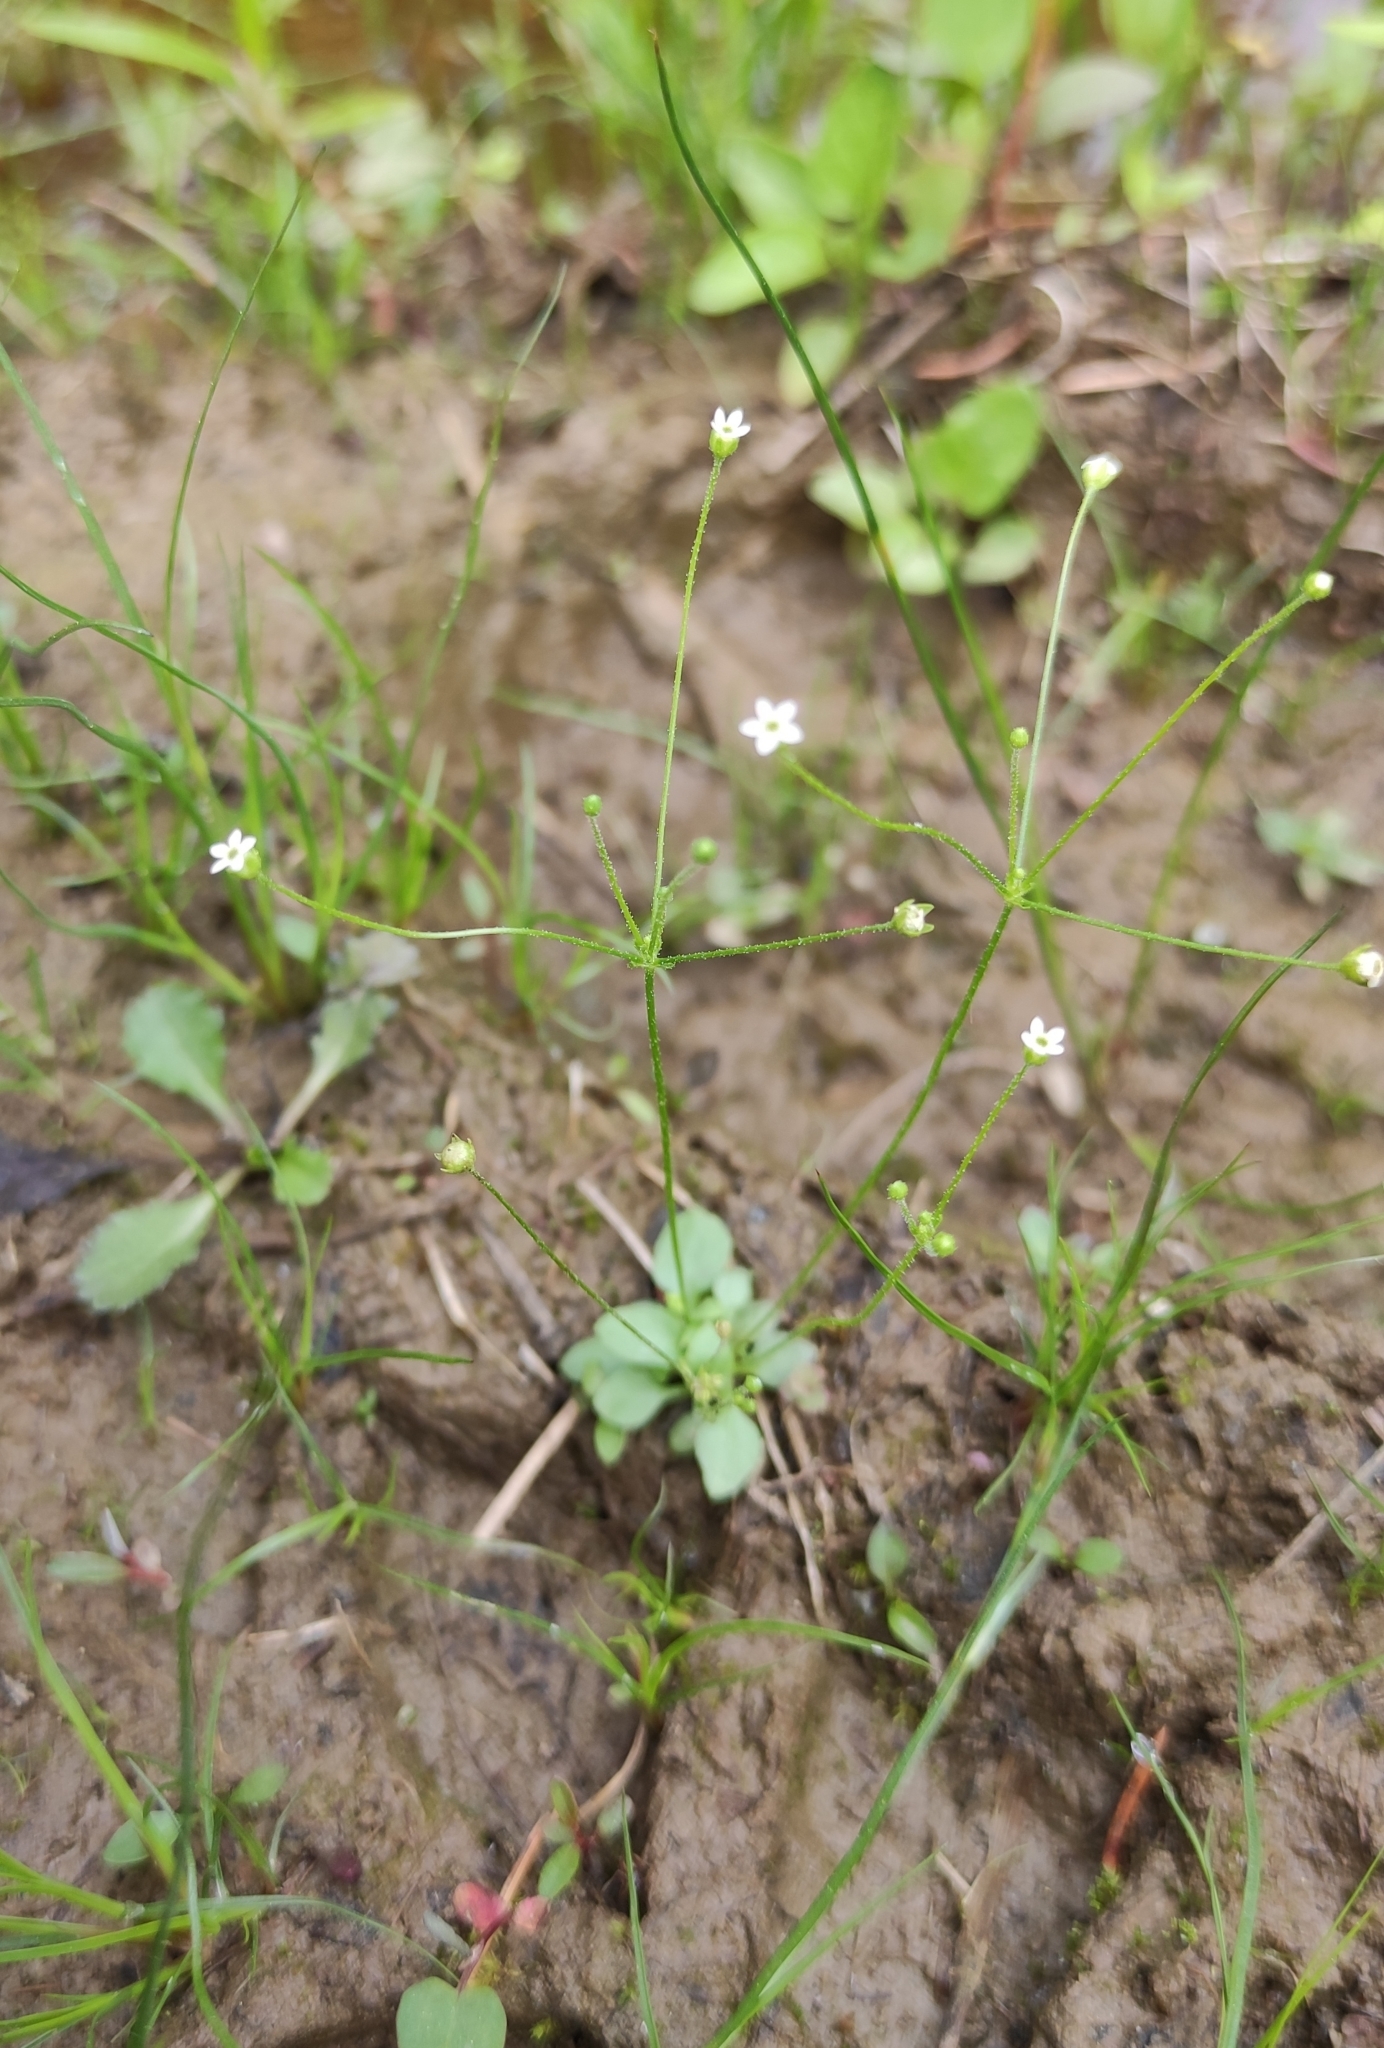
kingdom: Plantae
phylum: Tracheophyta
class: Magnoliopsida
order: Ericales
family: Primulaceae
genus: Androsace
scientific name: Androsace filiformis
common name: Filiform rock jasmine
